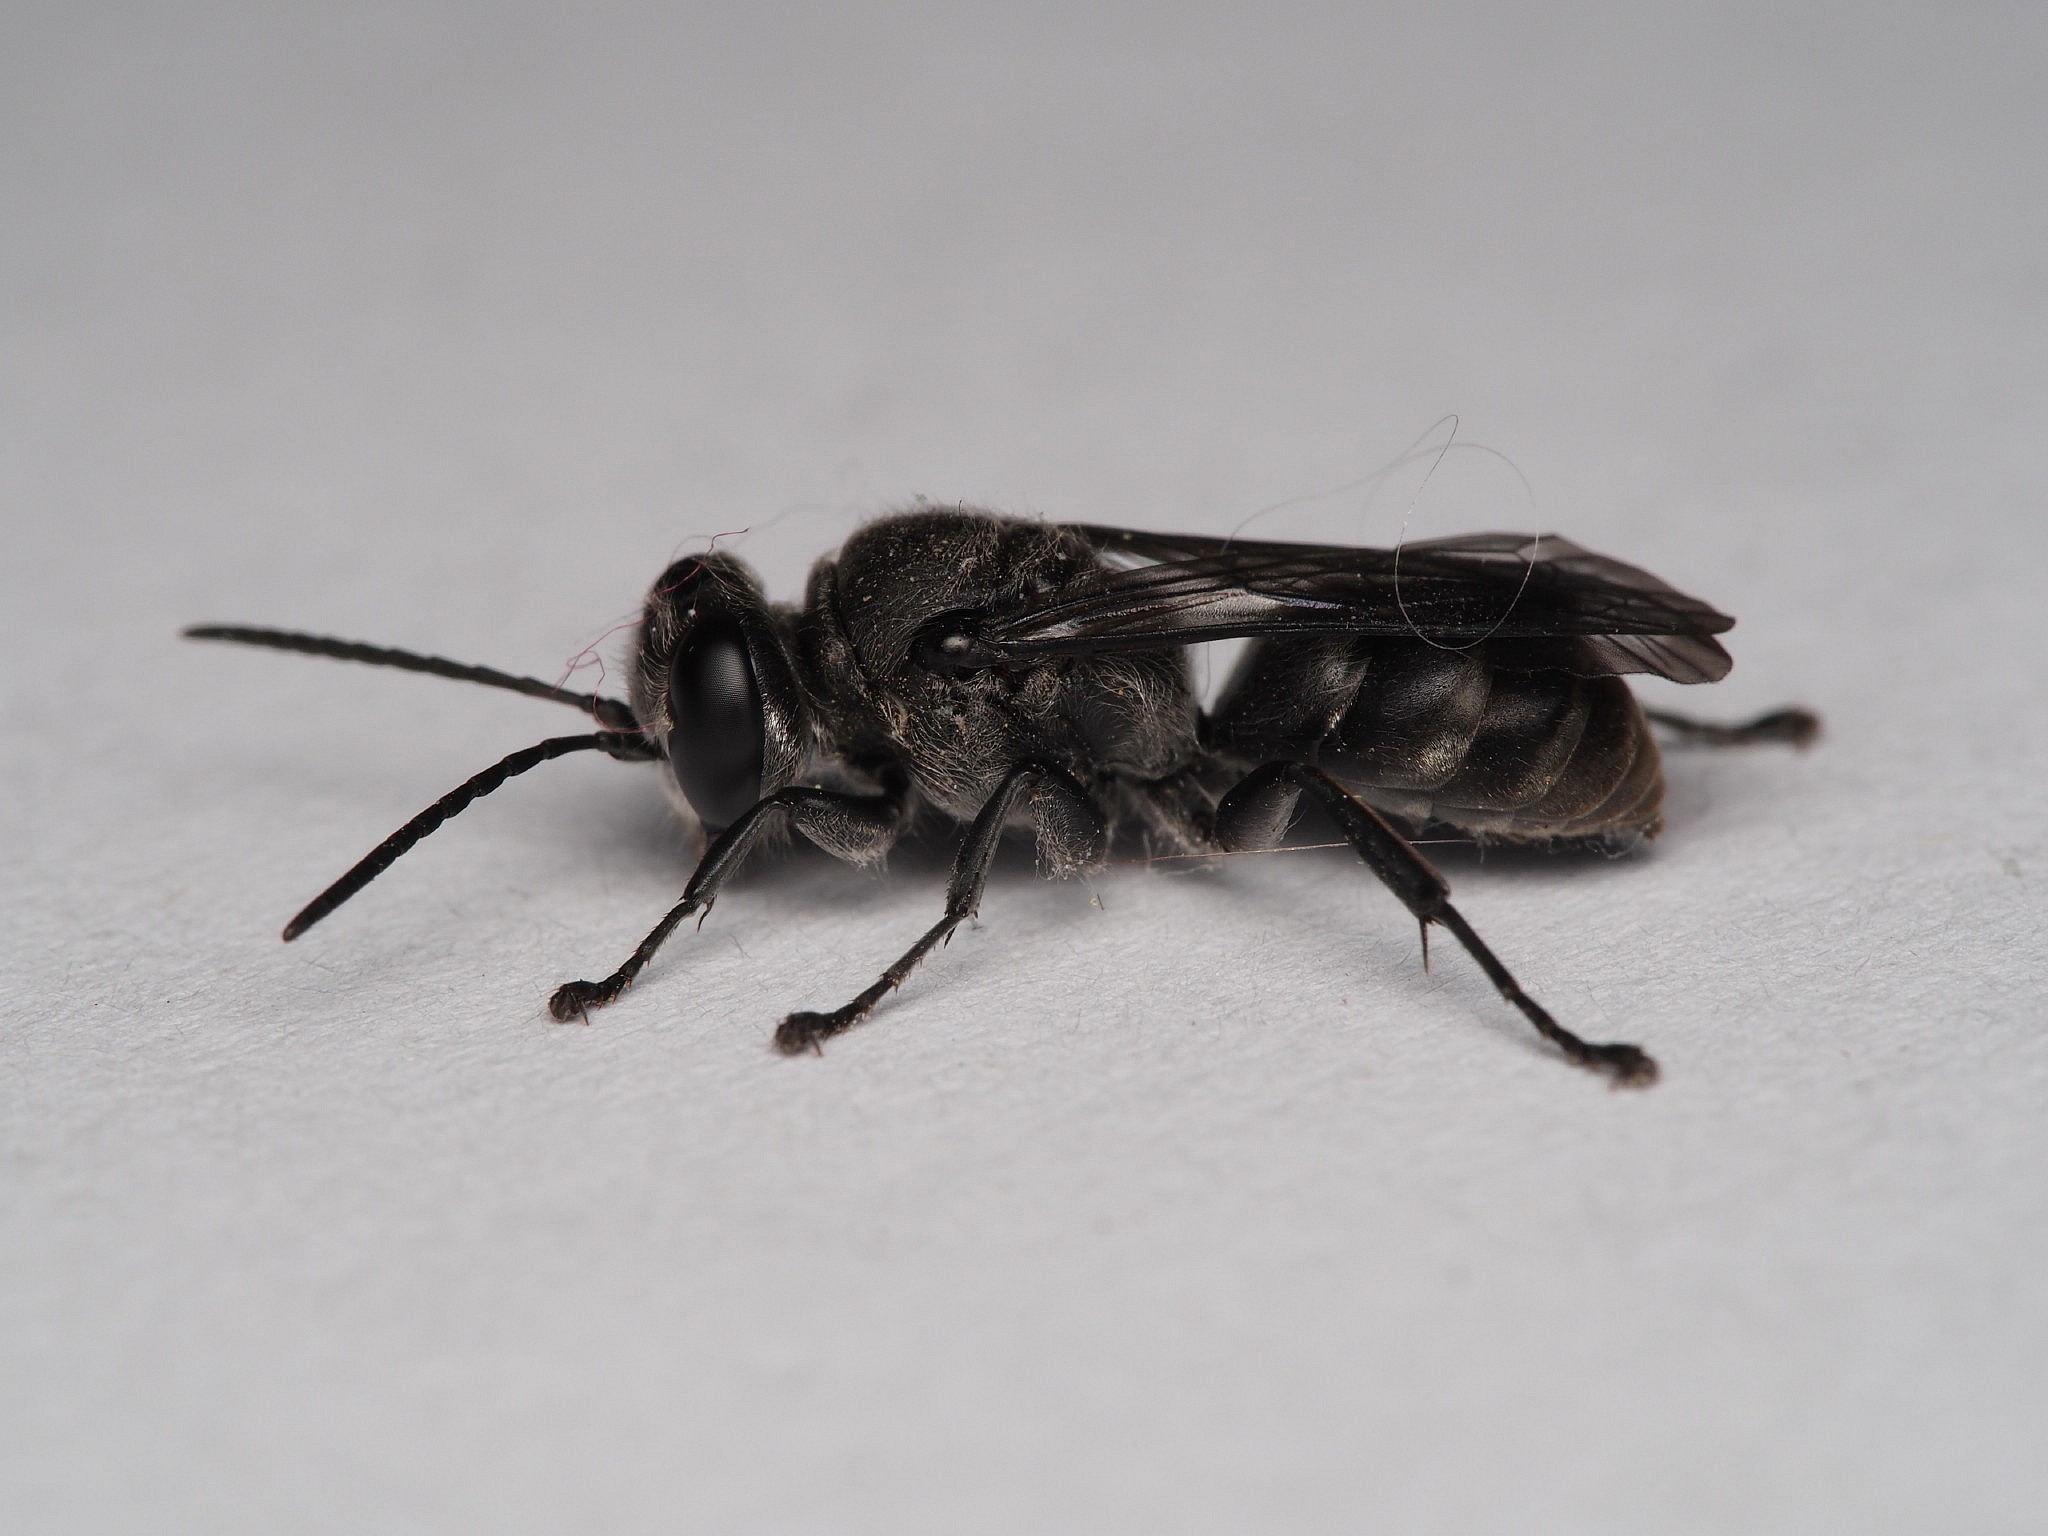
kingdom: Animalia
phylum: Arthropoda
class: Insecta
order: Hymenoptera
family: Crabronidae
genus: Pison
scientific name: Pison spinolae
